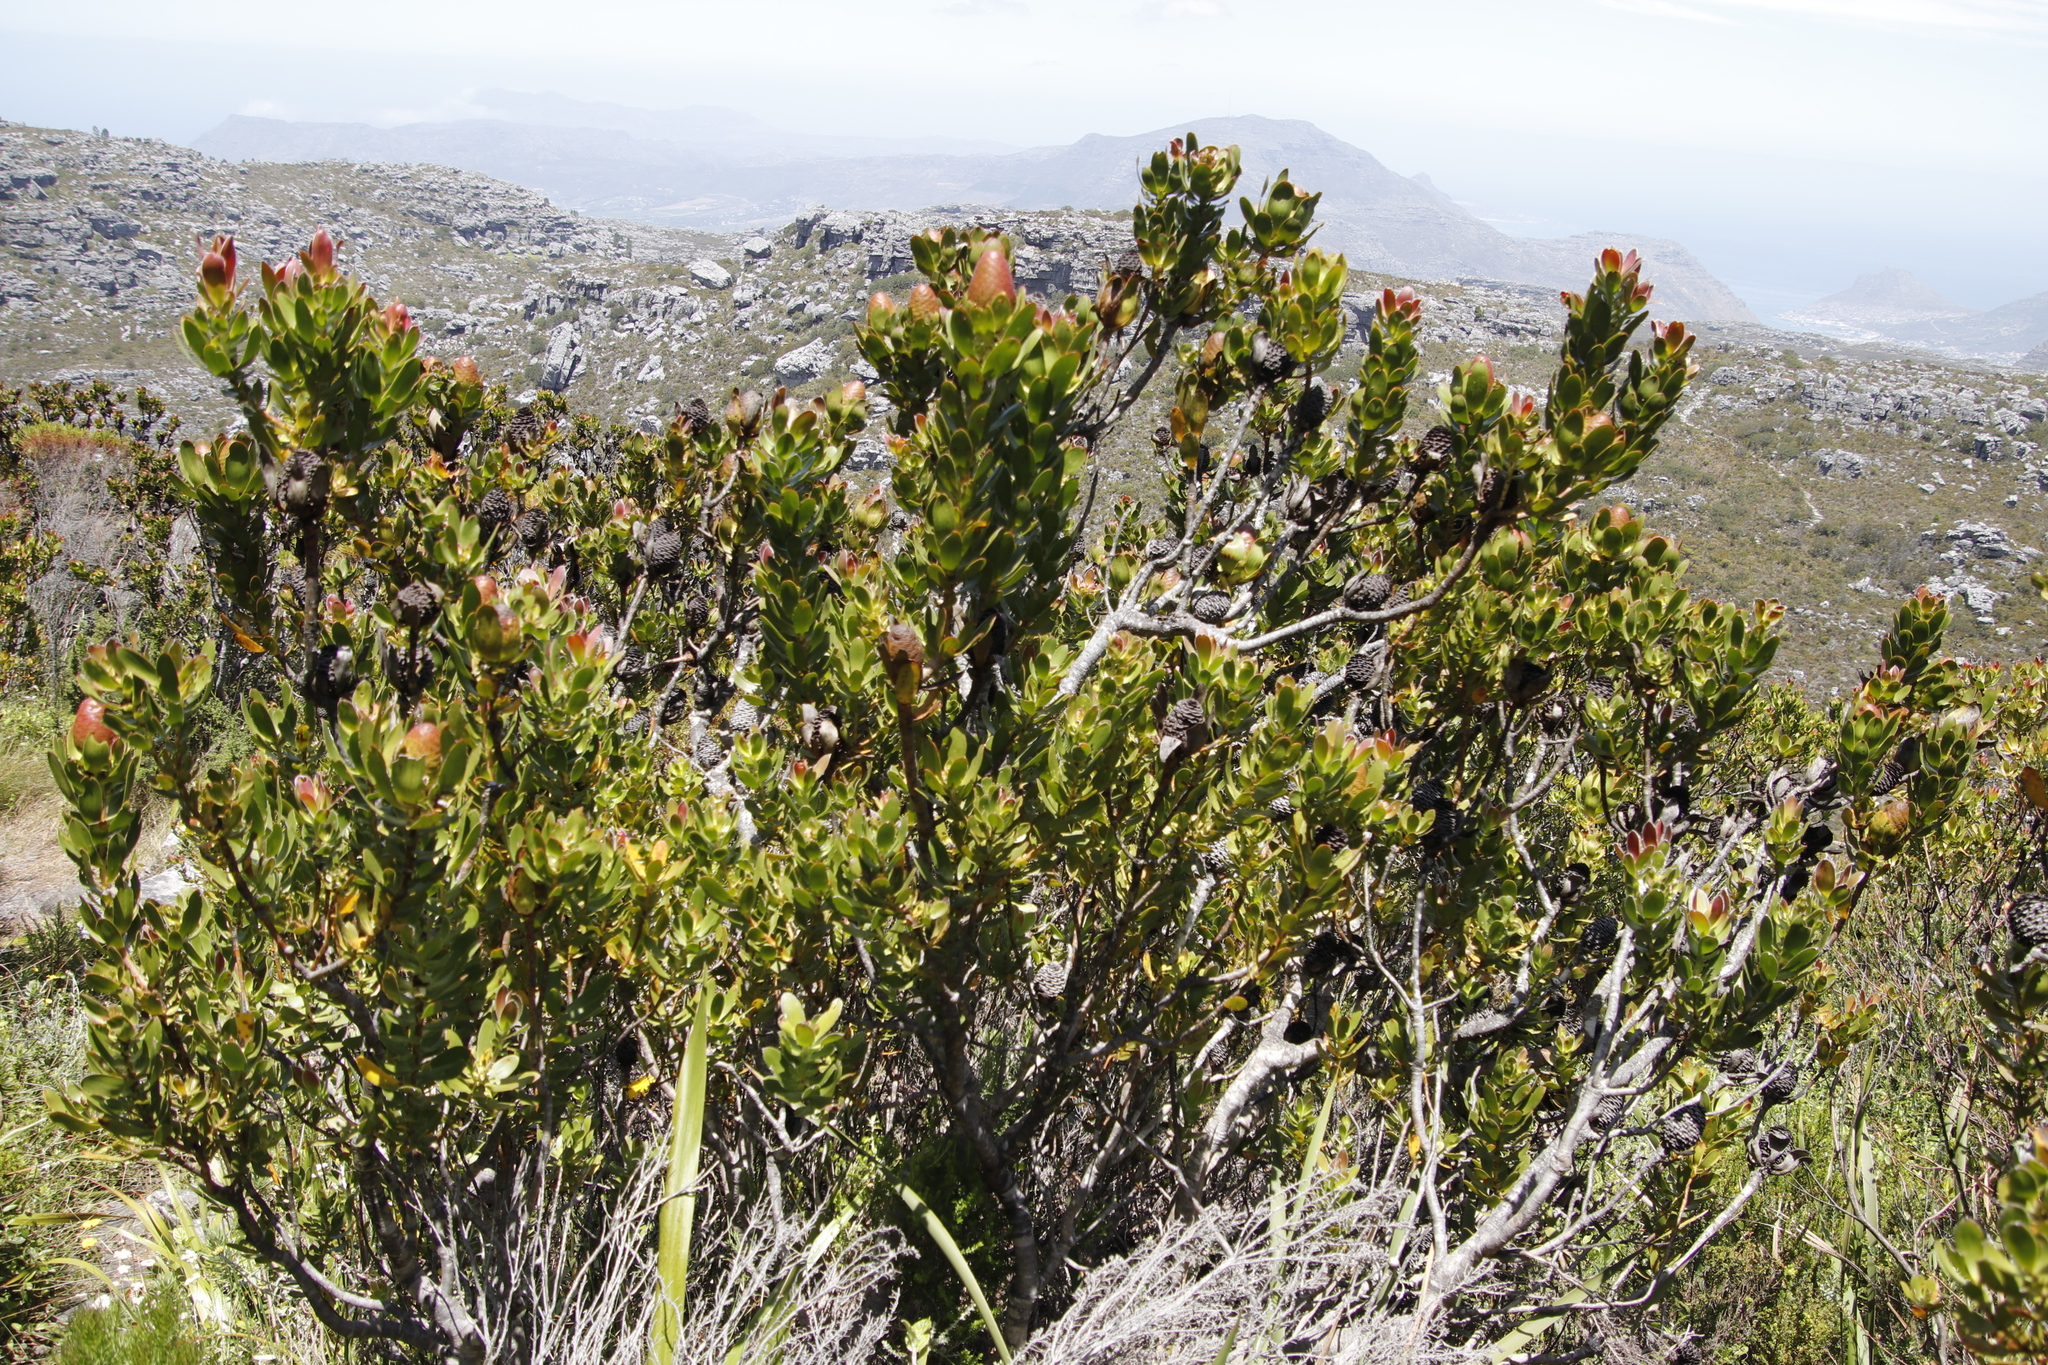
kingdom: Plantae
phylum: Tracheophyta
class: Magnoliopsida
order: Proteales
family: Proteaceae
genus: Leucadendron
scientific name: Leucadendron strobilinum
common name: Mountain rose
